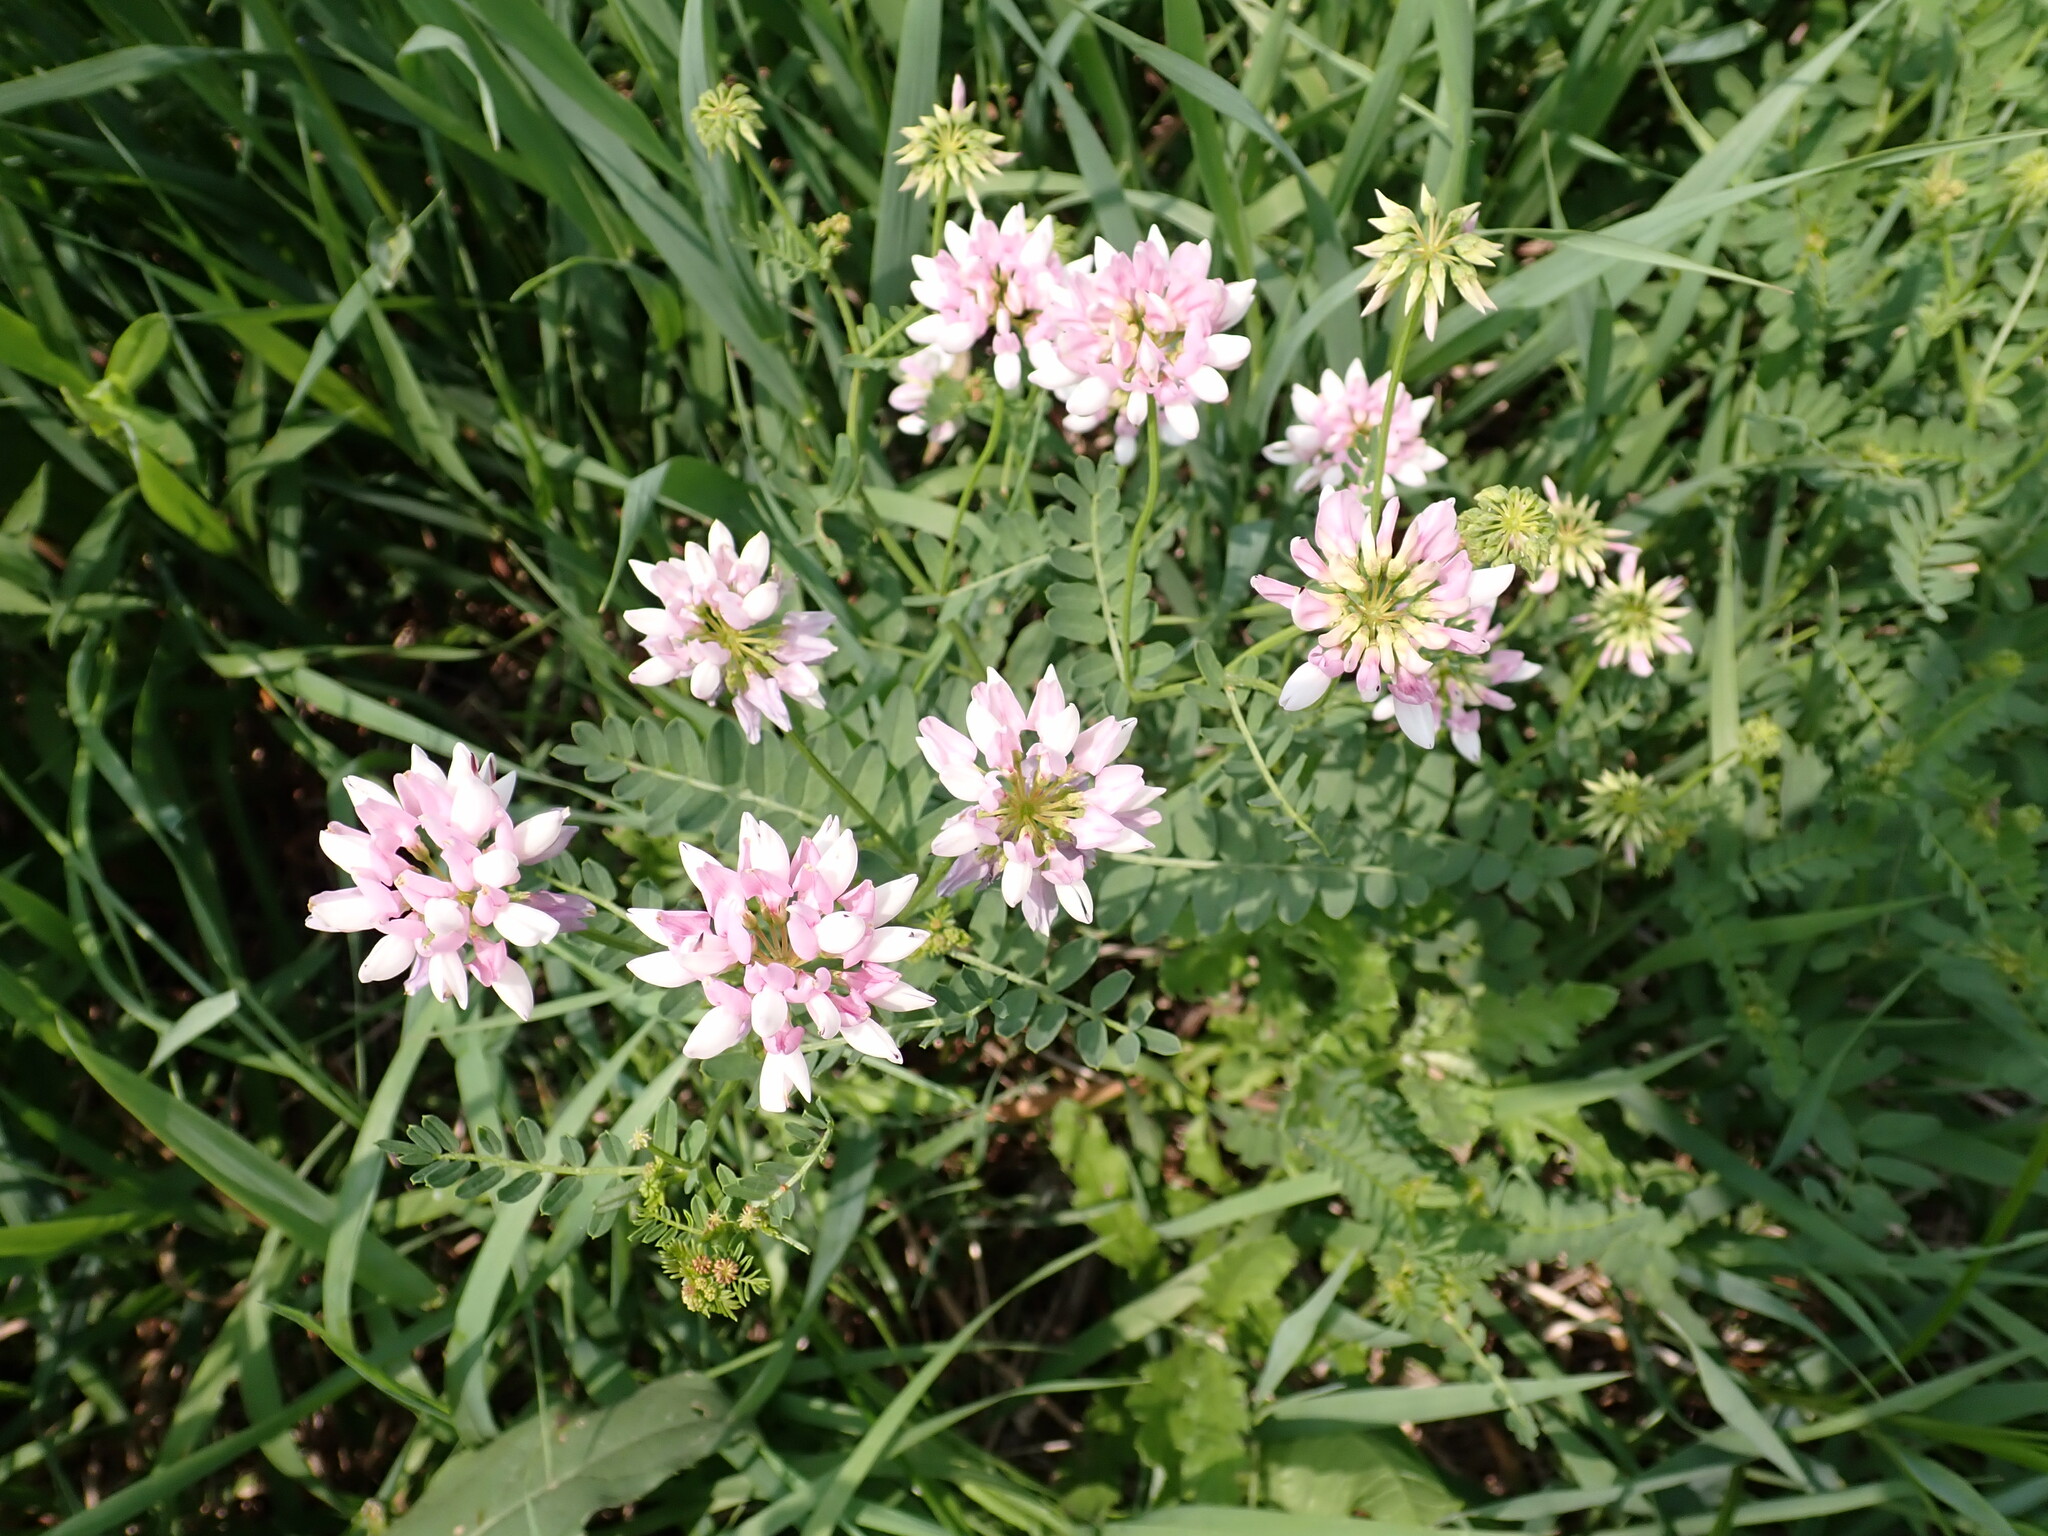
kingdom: Plantae
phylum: Tracheophyta
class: Magnoliopsida
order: Fabales
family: Fabaceae
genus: Coronilla
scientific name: Coronilla varia
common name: Crownvetch
